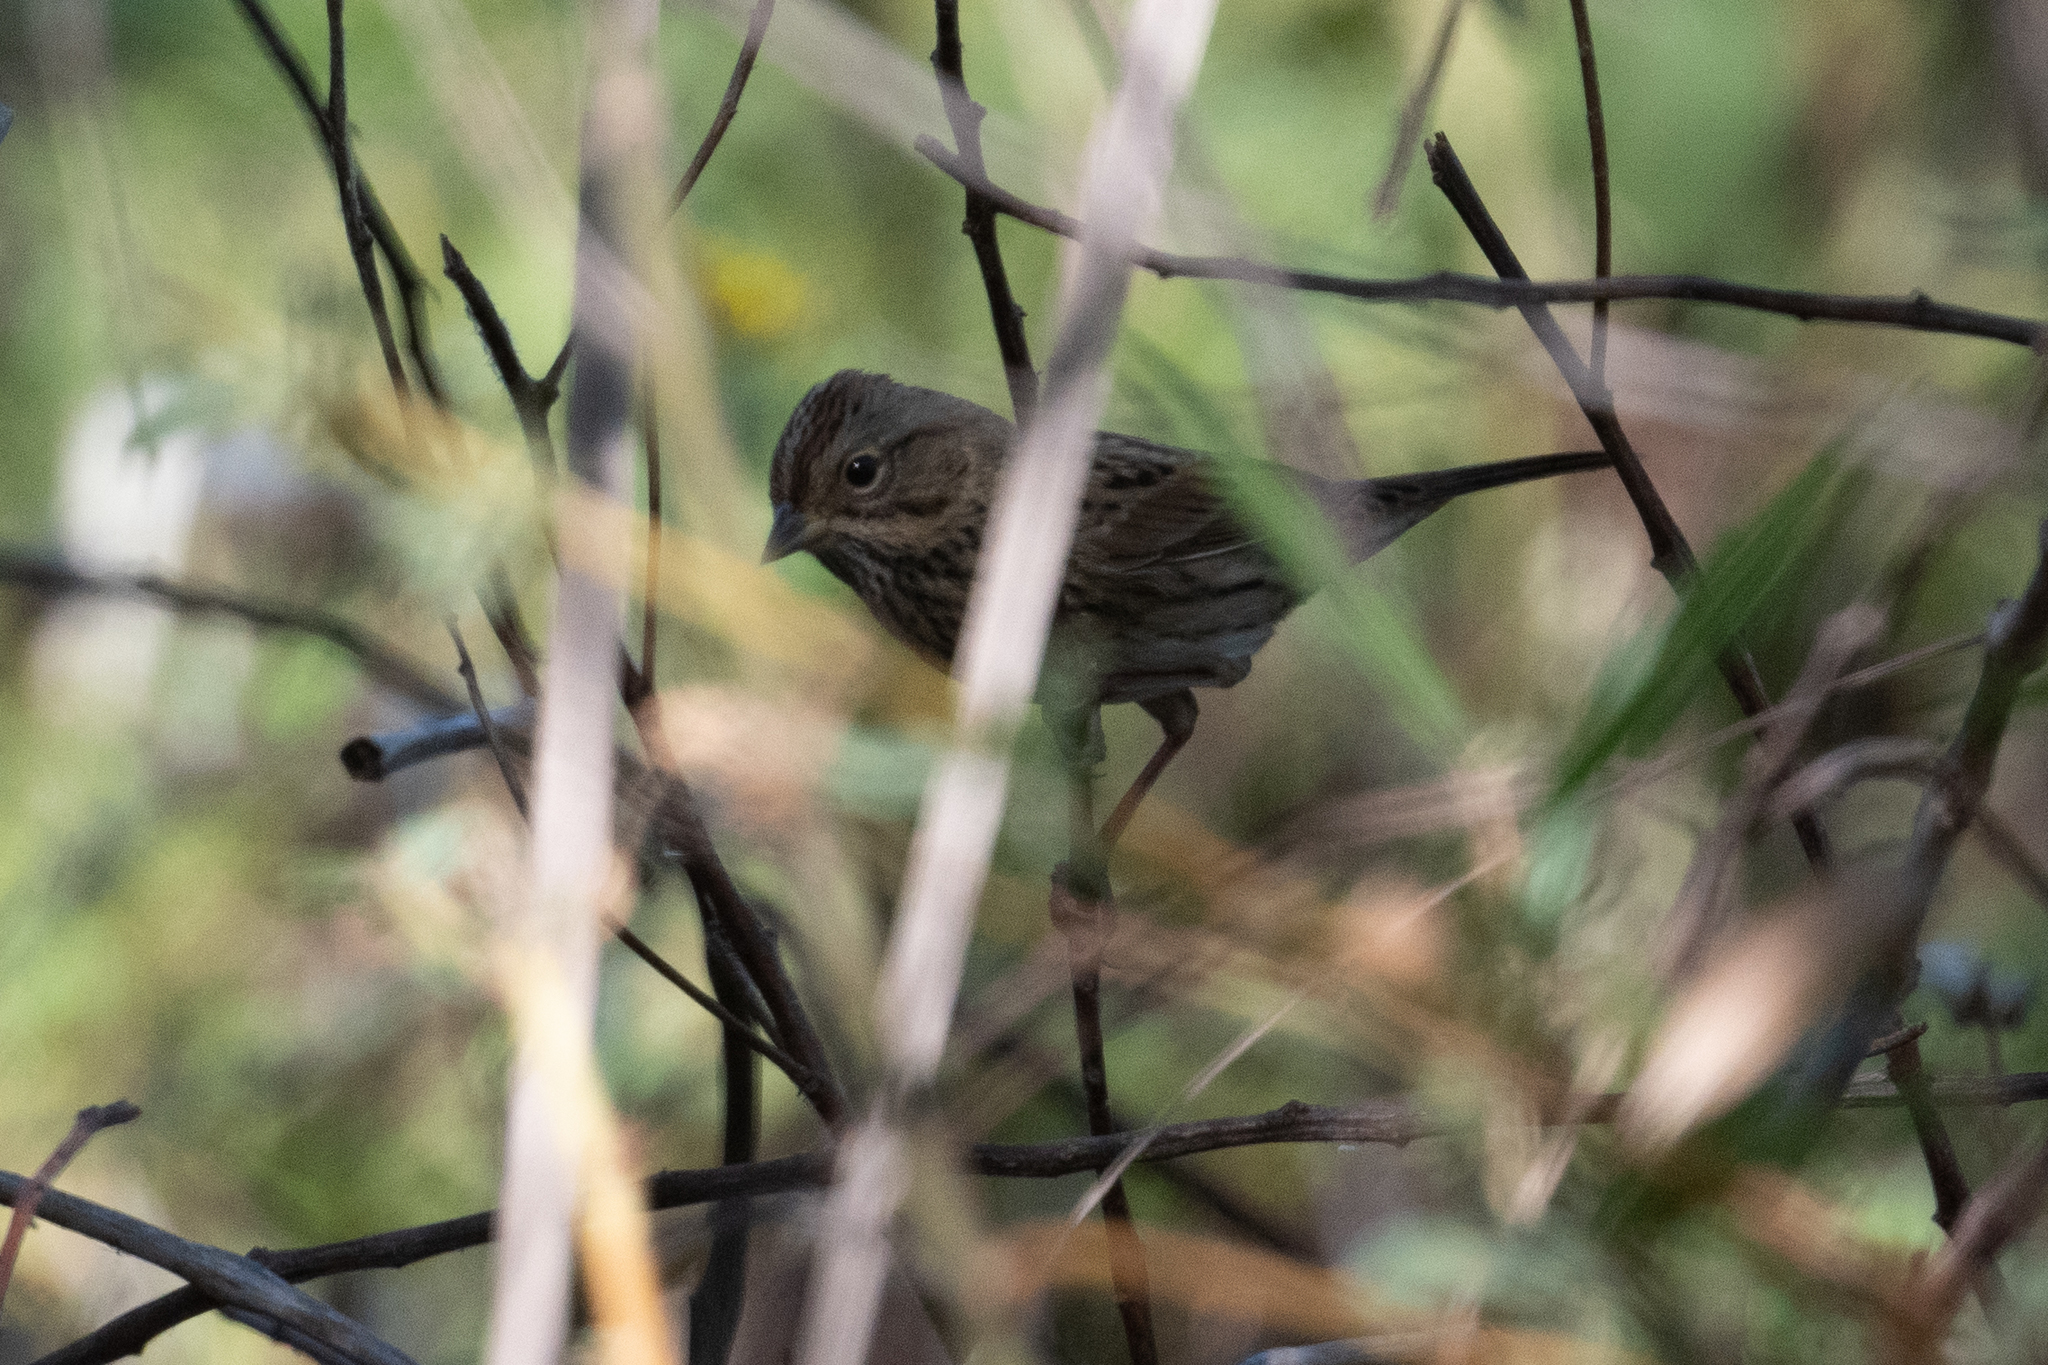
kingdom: Animalia
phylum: Chordata
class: Aves
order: Passeriformes
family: Passerellidae
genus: Melospiza
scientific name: Melospiza lincolnii
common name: Lincoln's sparrow
